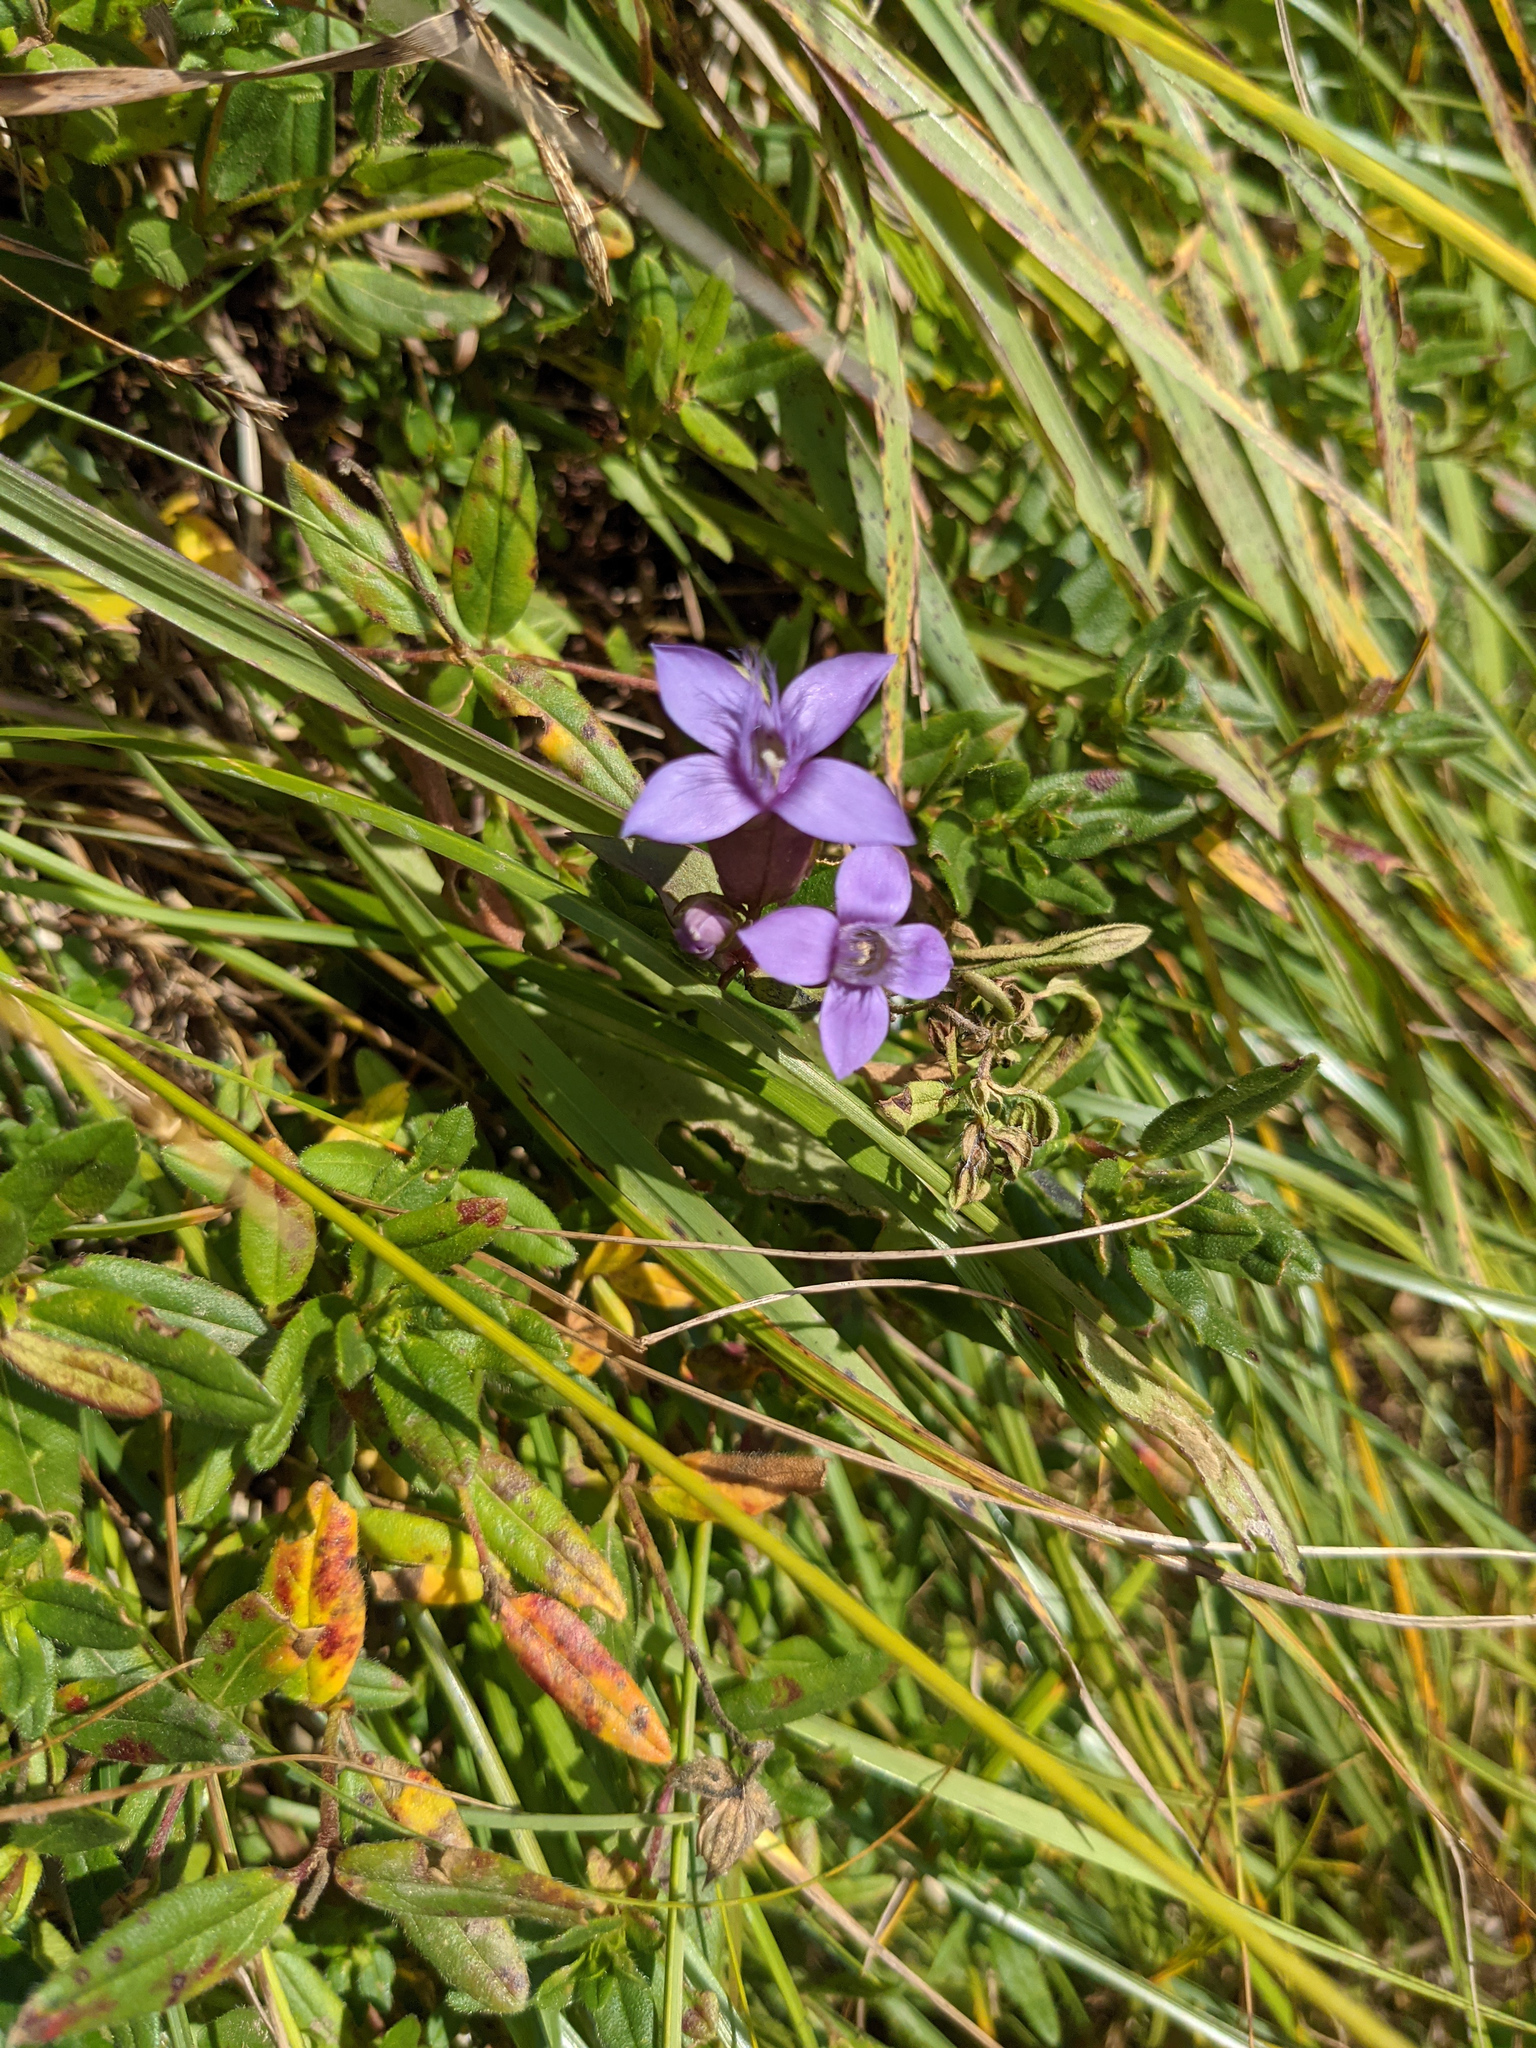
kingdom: Plantae
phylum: Tracheophyta
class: Magnoliopsida
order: Gentianales
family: Gentianaceae
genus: Gentianella
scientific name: Gentianella campestris
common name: Field gentian
